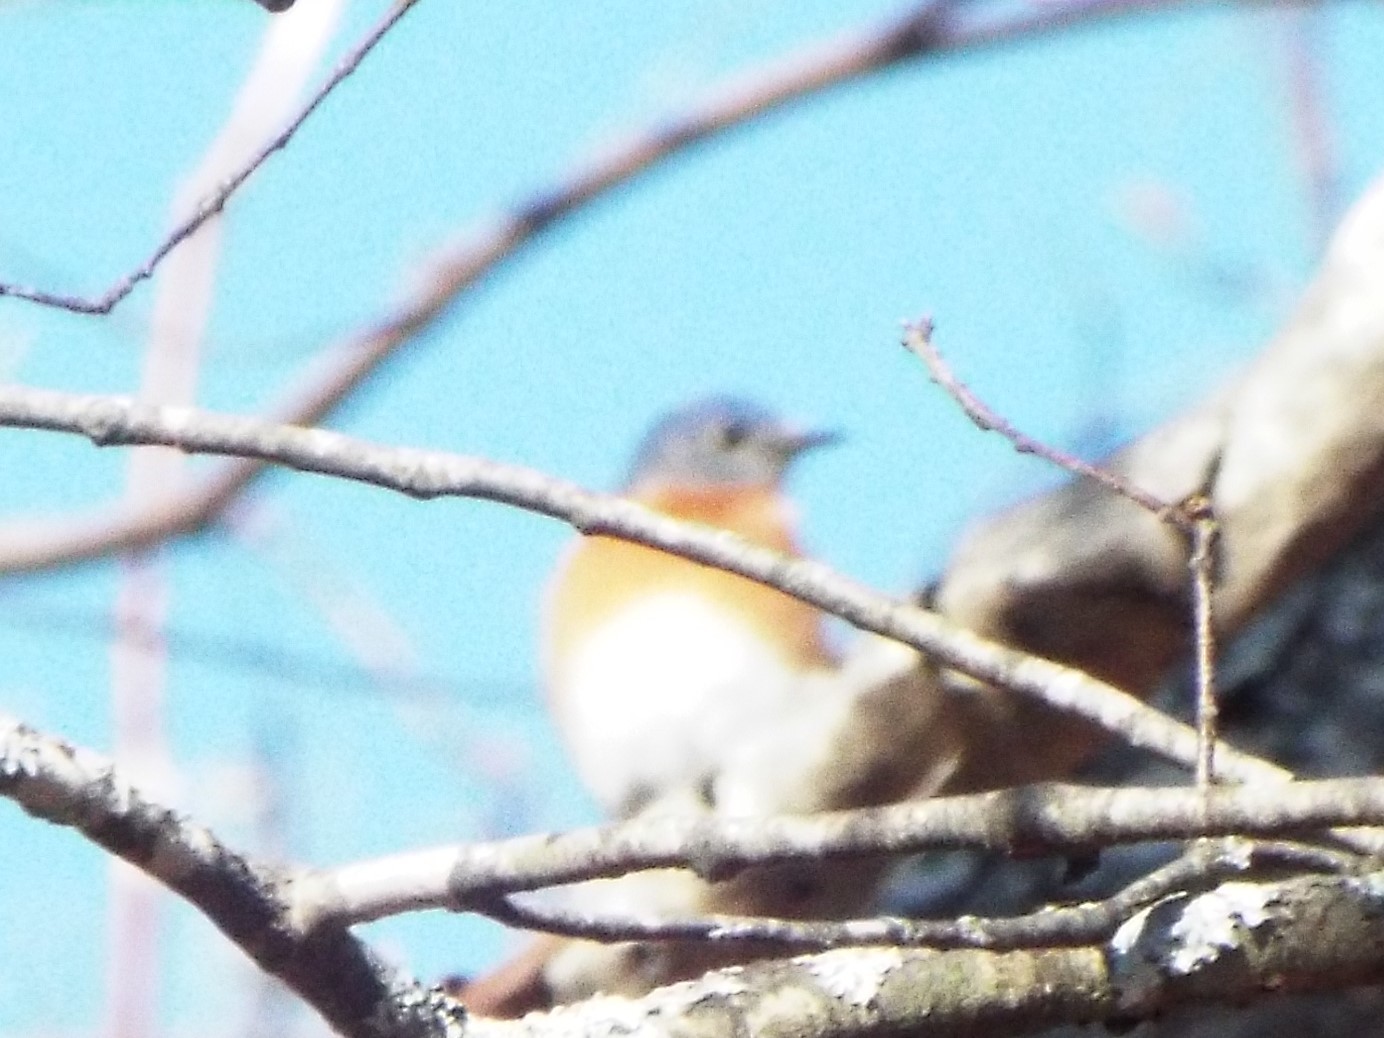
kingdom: Animalia
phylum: Chordata
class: Aves
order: Passeriformes
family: Turdidae
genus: Sialia
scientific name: Sialia sialis
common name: Eastern bluebird
